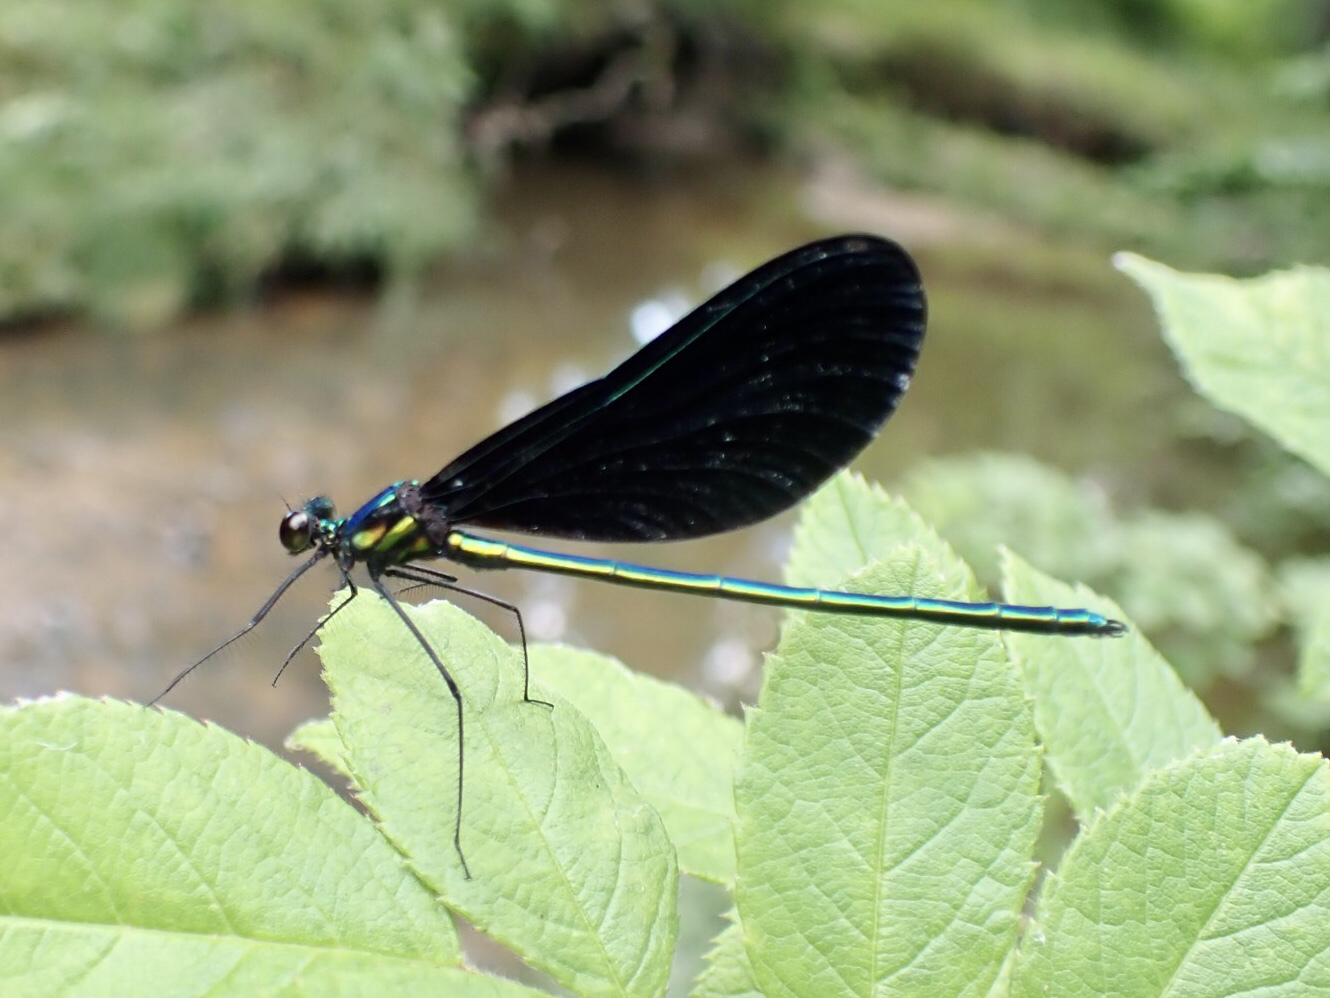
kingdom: Animalia
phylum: Arthropoda
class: Insecta
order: Odonata
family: Calopterygidae
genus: Calopteryx
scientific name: Calopteryx maculata
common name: Ebony jewelwing
